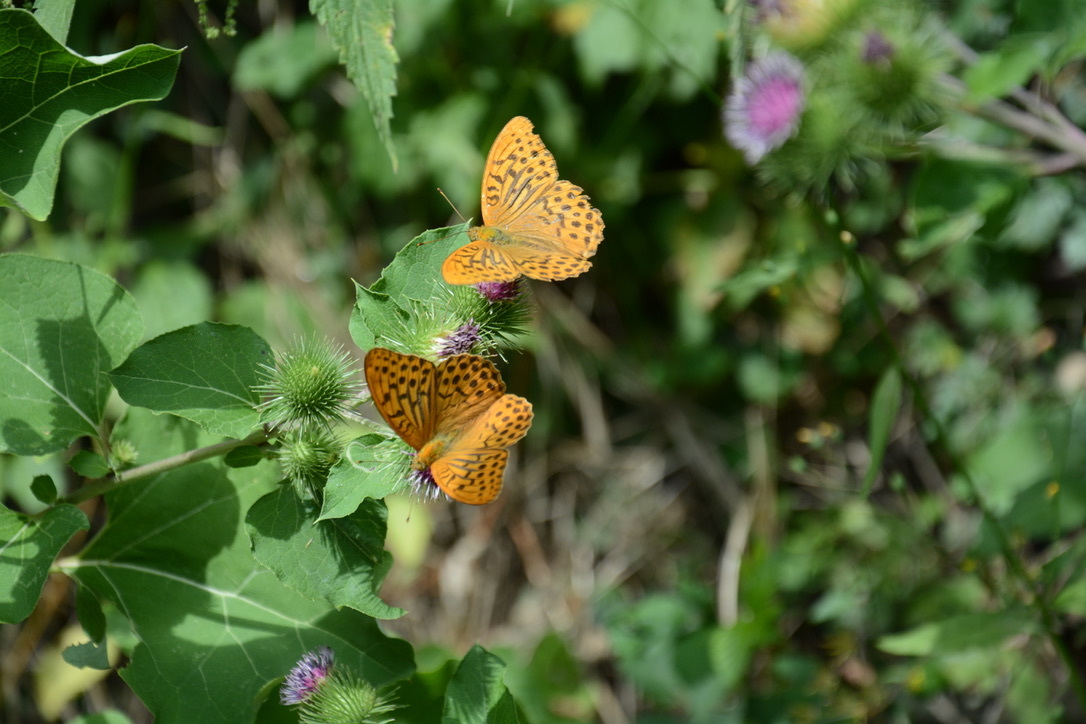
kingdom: Animalia
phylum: Arthropoda
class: Insecta
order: Lepidoptera
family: Nymphalidae
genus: Argynnis
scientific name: Argynnis paphia
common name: Silver-washed fritillary
